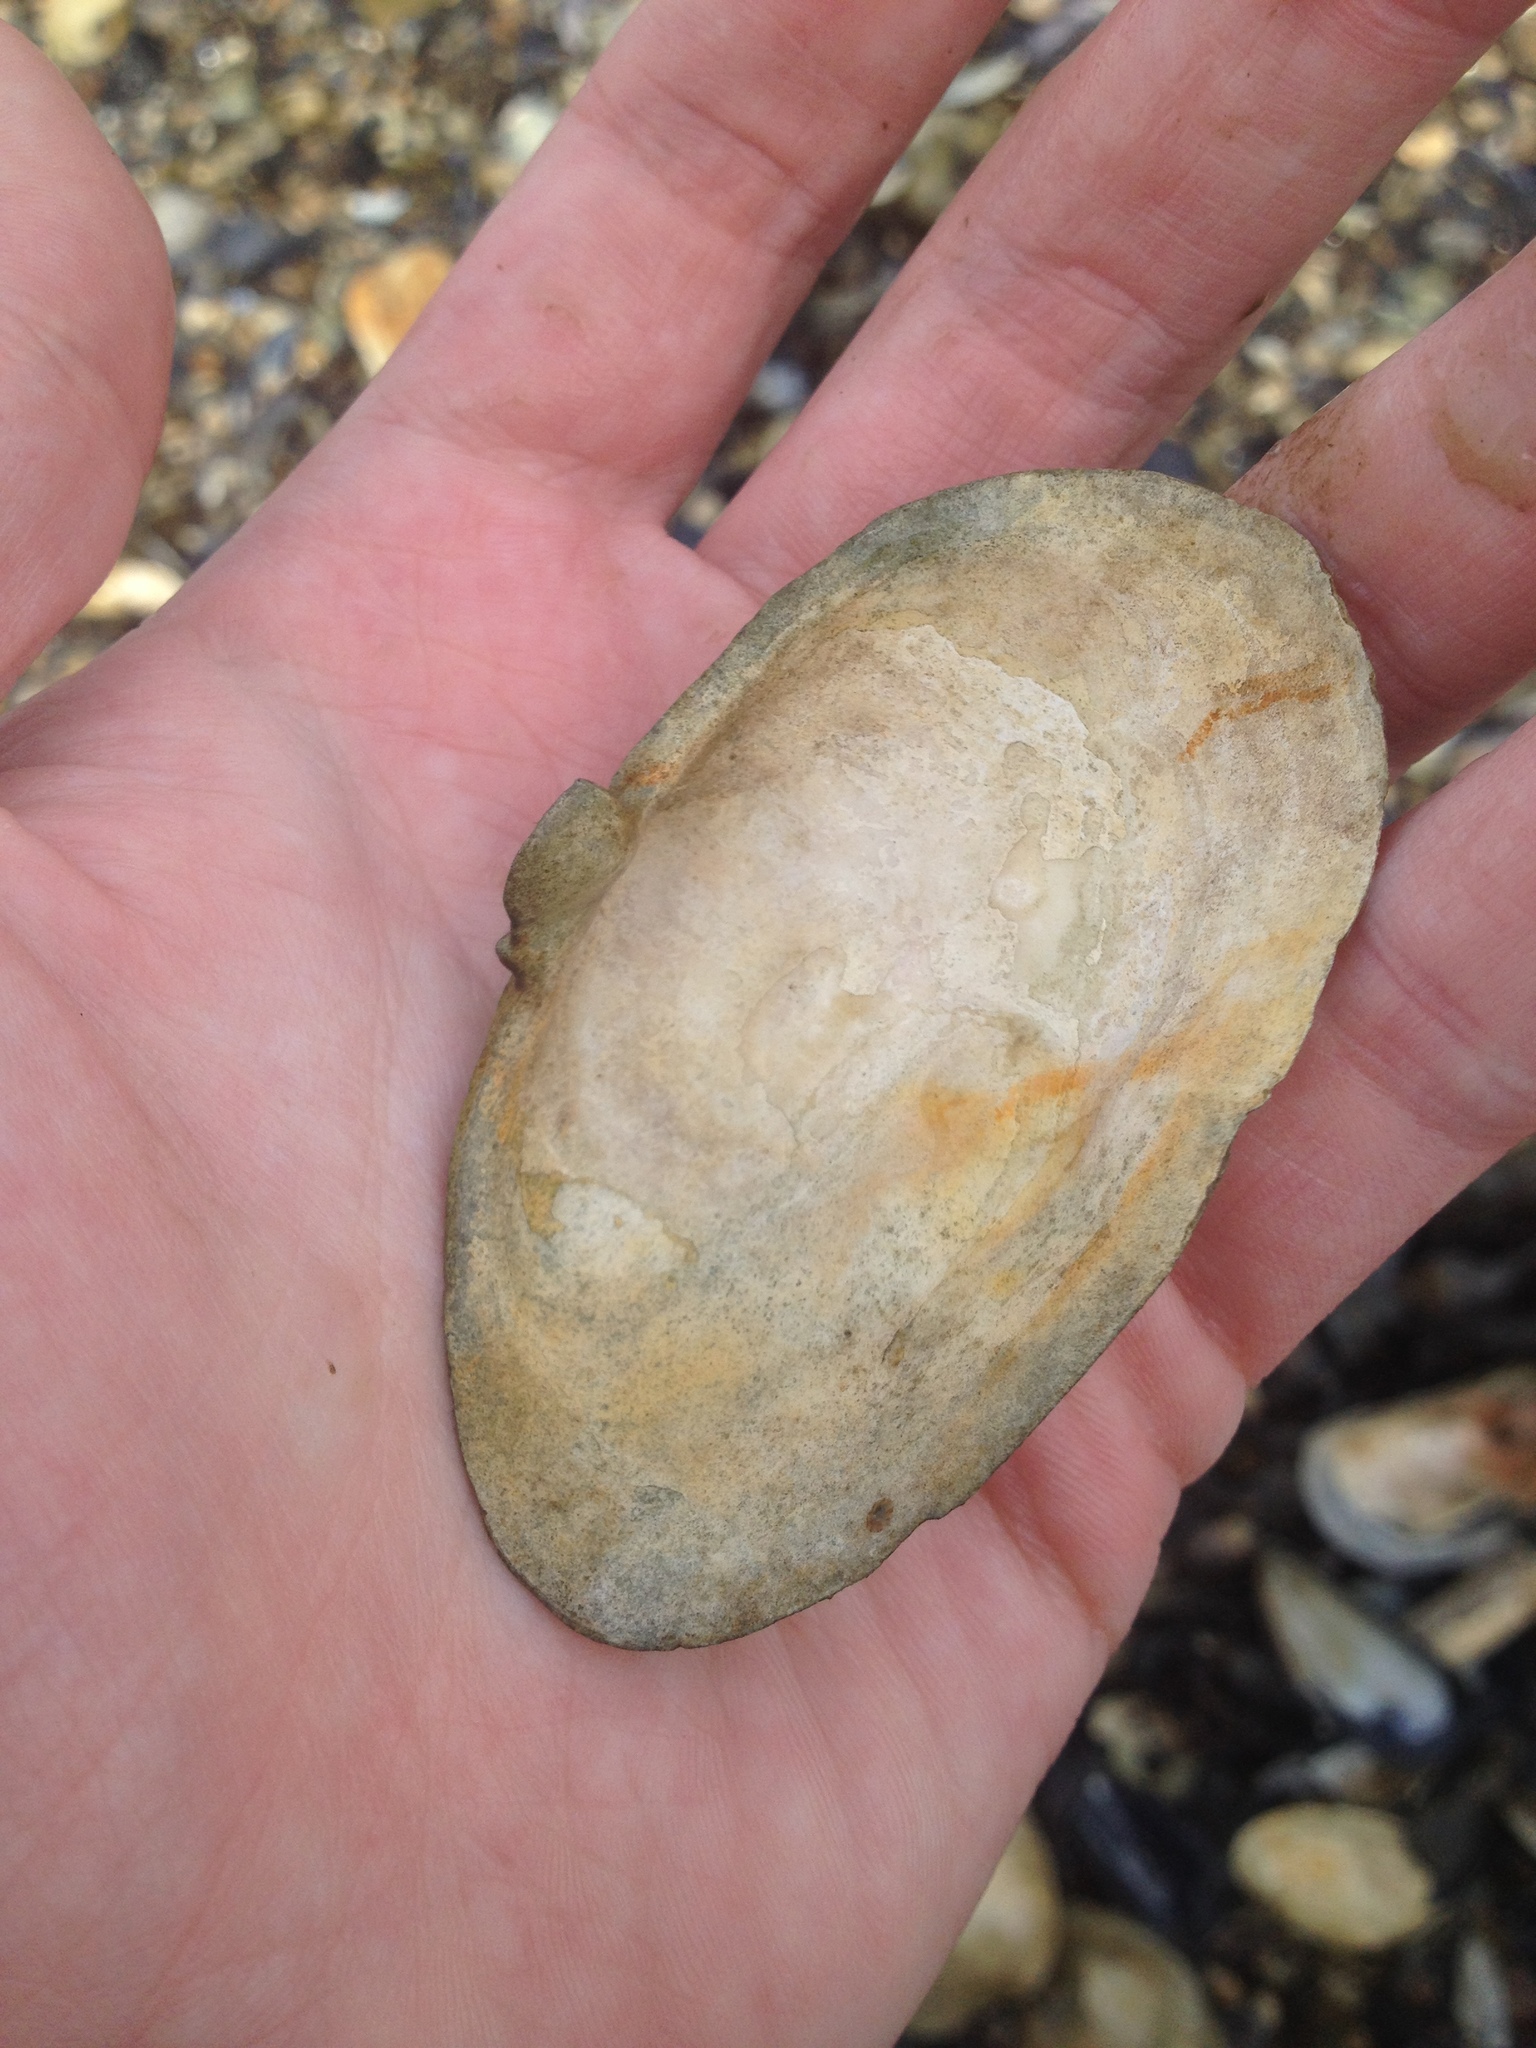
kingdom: Animalia
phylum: Mollusca
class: Bivalvia
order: Myida
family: Myidae
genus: Mya
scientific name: Mya arenaria
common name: Soft-shelled clam
